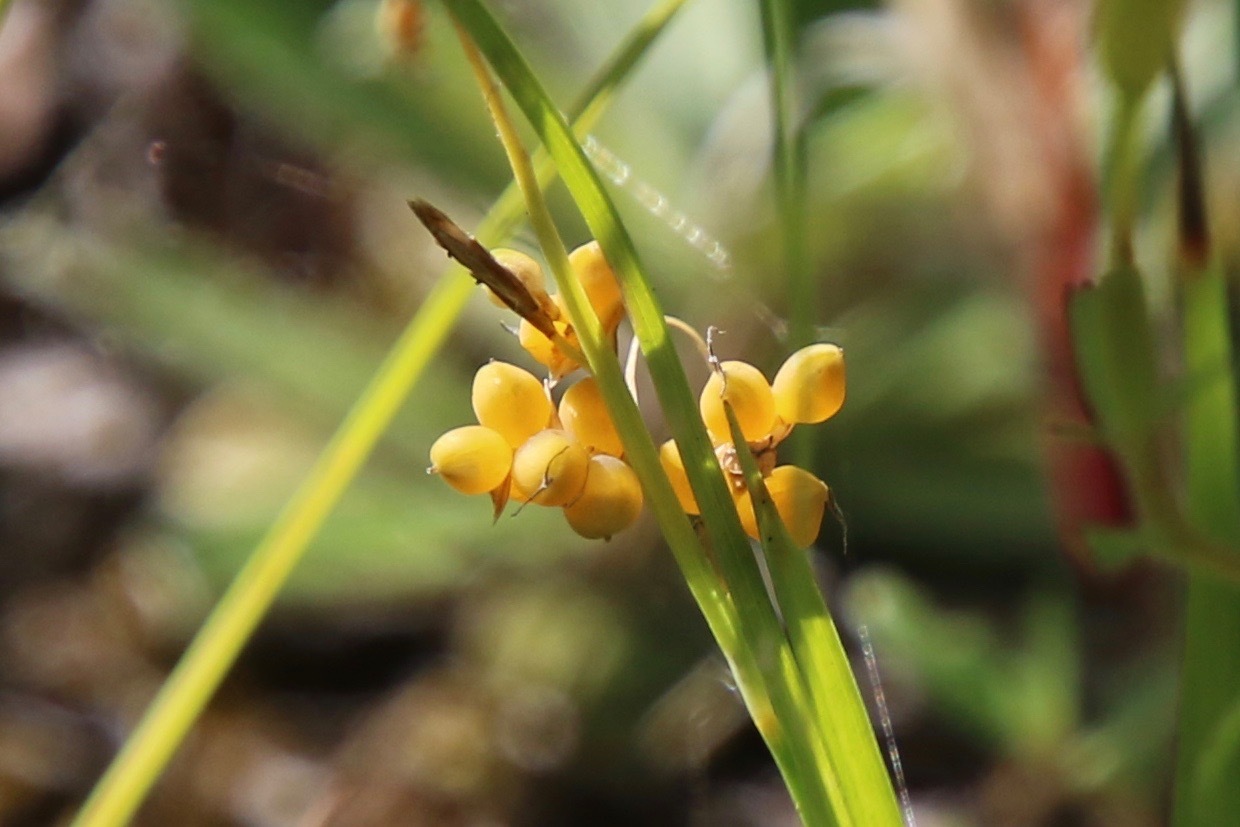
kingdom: Plantae
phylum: Tracheophyta
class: Liliopsida
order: Poales
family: Cyperaceae
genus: Carex
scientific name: Carex aurea
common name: Golden sedge
